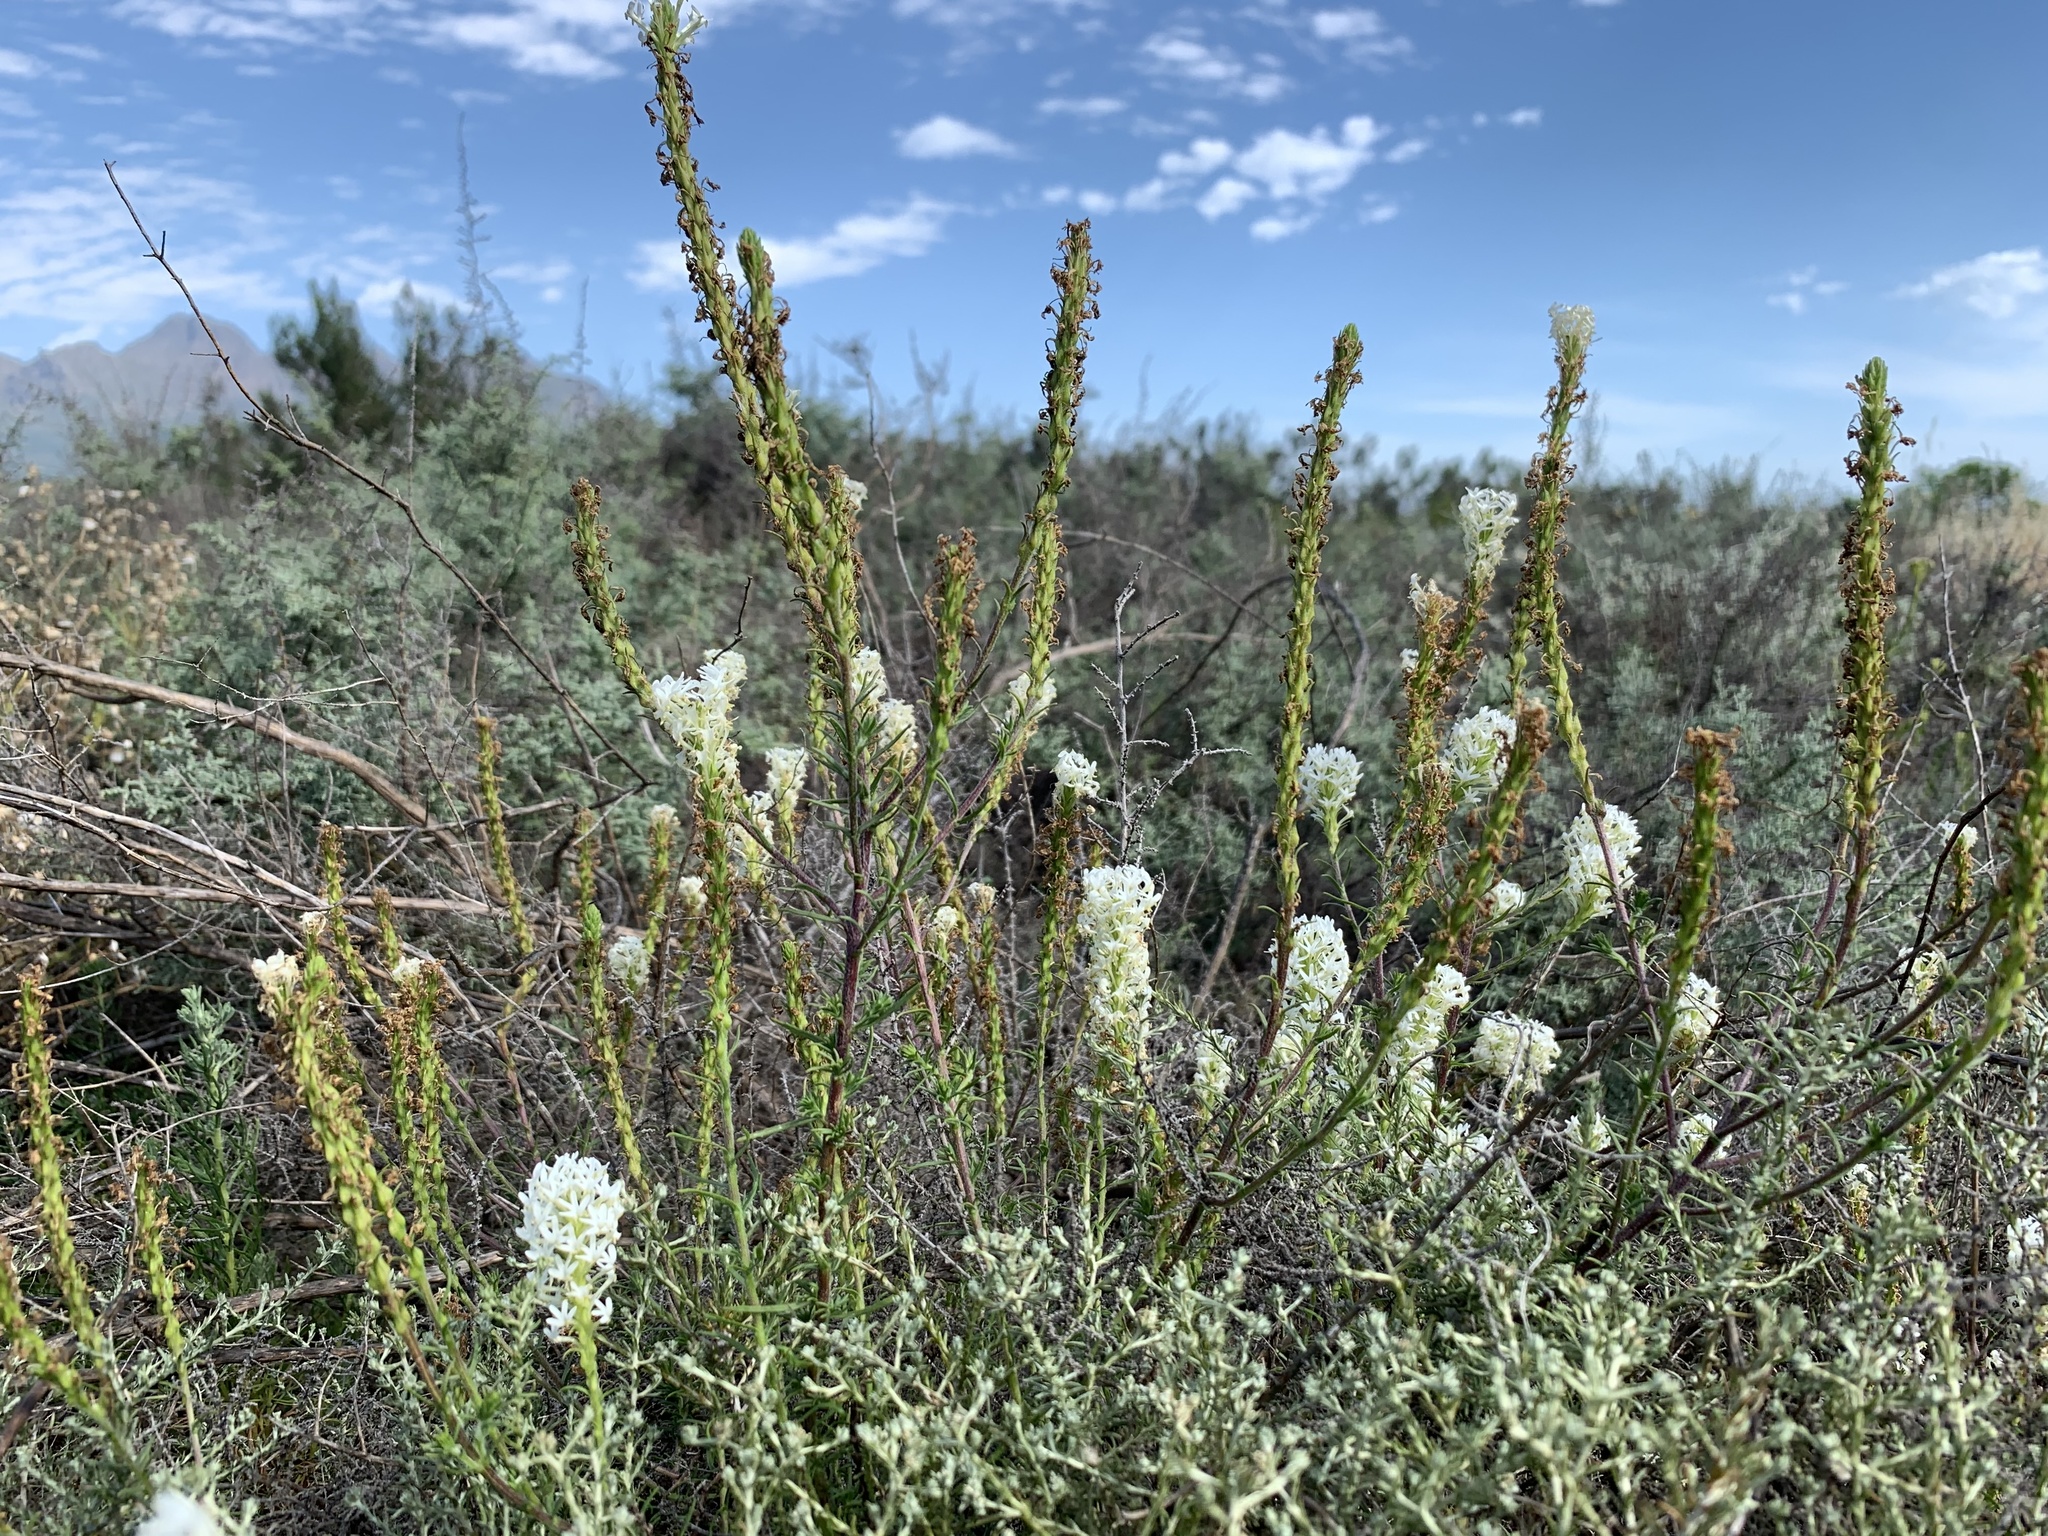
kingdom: Plantae
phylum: Tracheophyta
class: Magnoliopsida
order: Lamiales
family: Scrophulariaceae
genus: Dischisma
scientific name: Dischisma ciliatum
